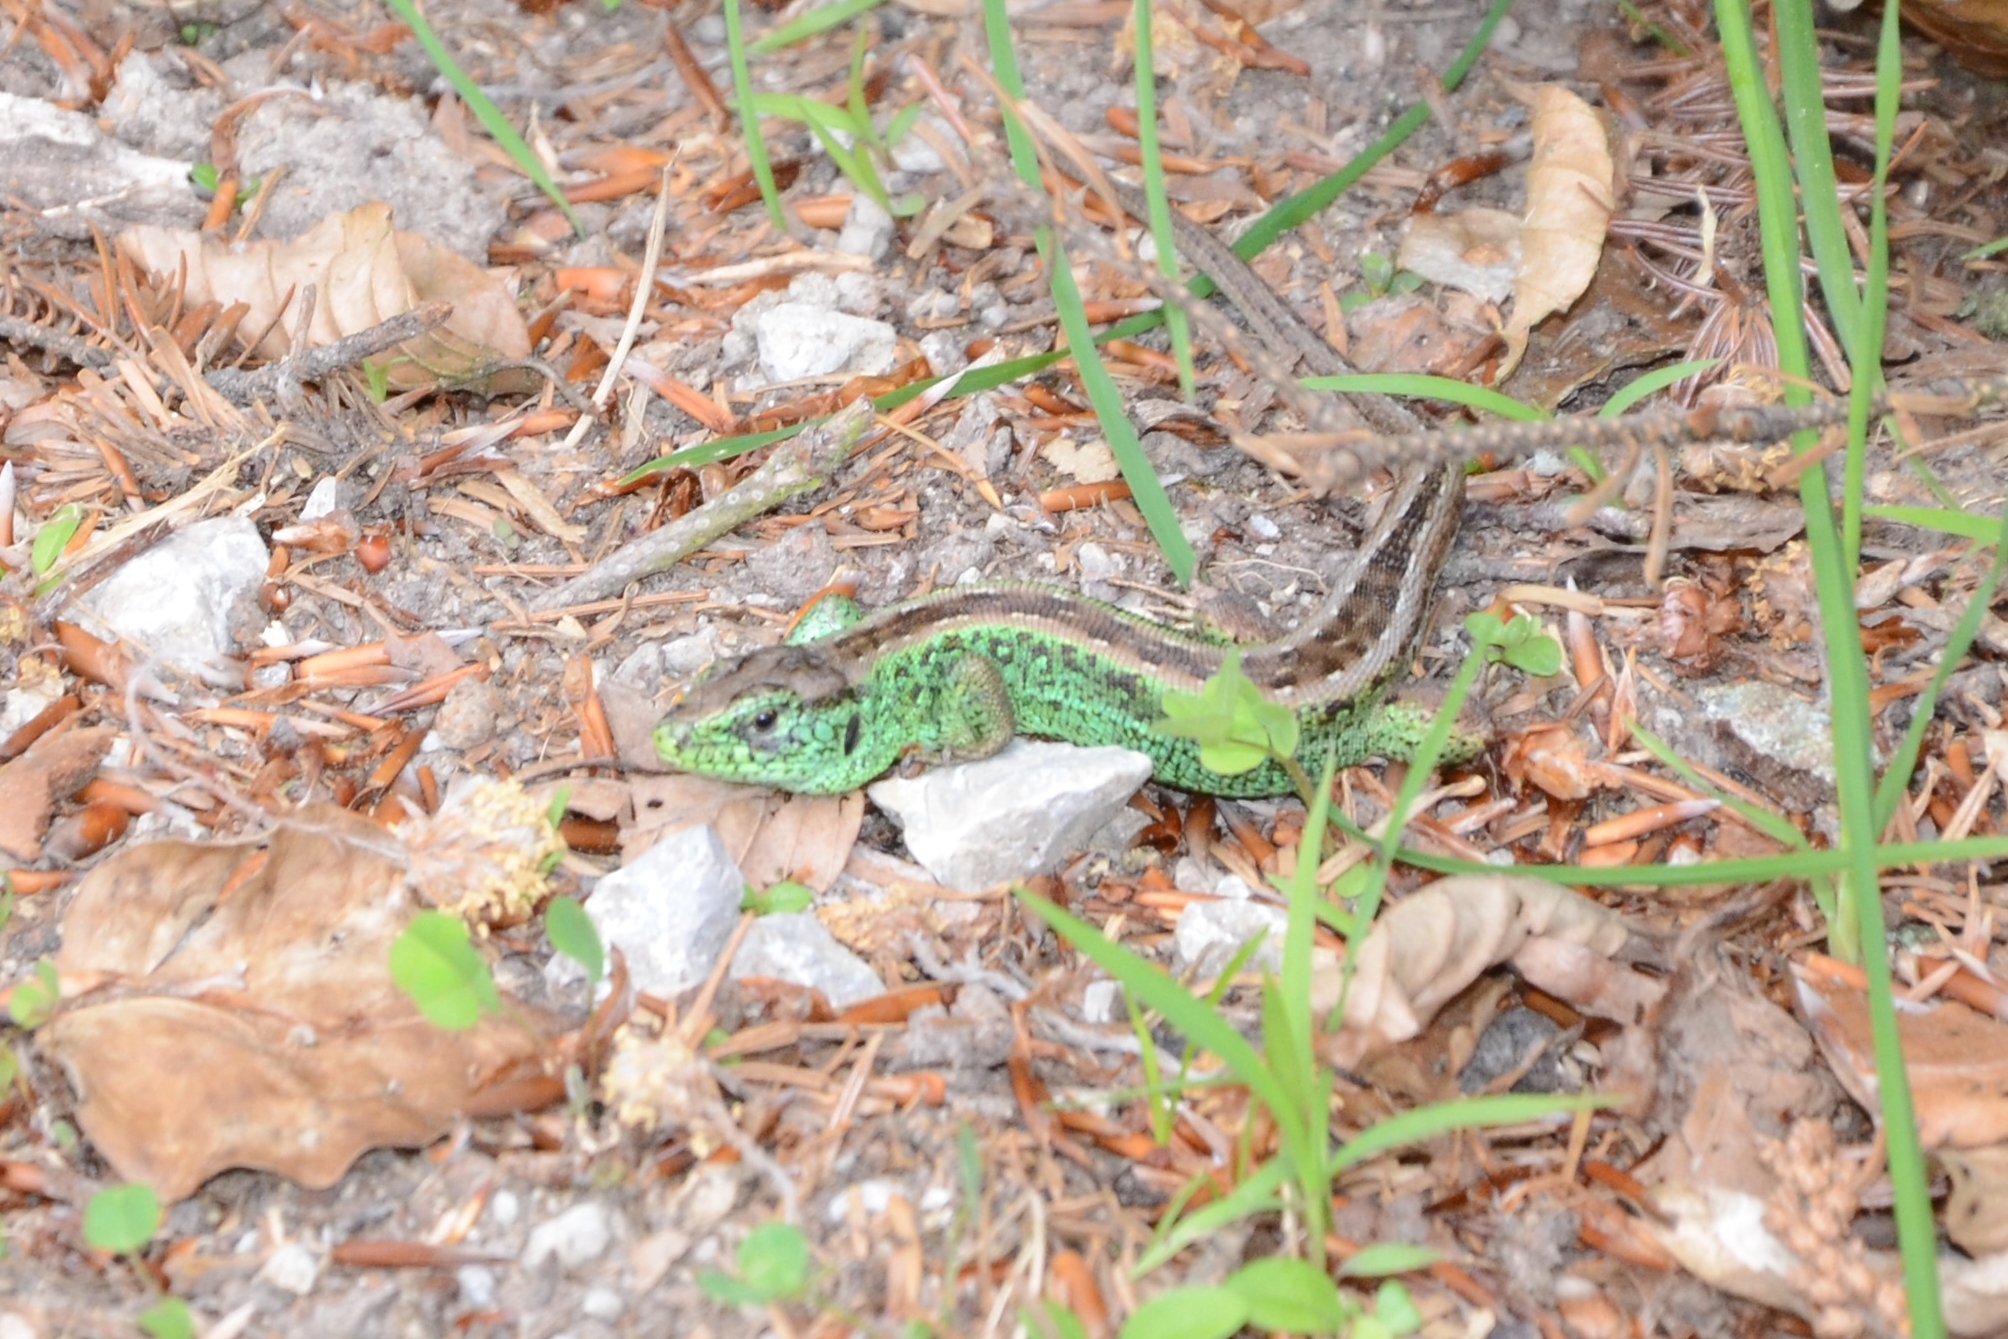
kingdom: Animalia
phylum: Chordata
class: Squamata
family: Lacertidae
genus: Lacerta
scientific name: Lacerta agilis
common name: Sand lizard
